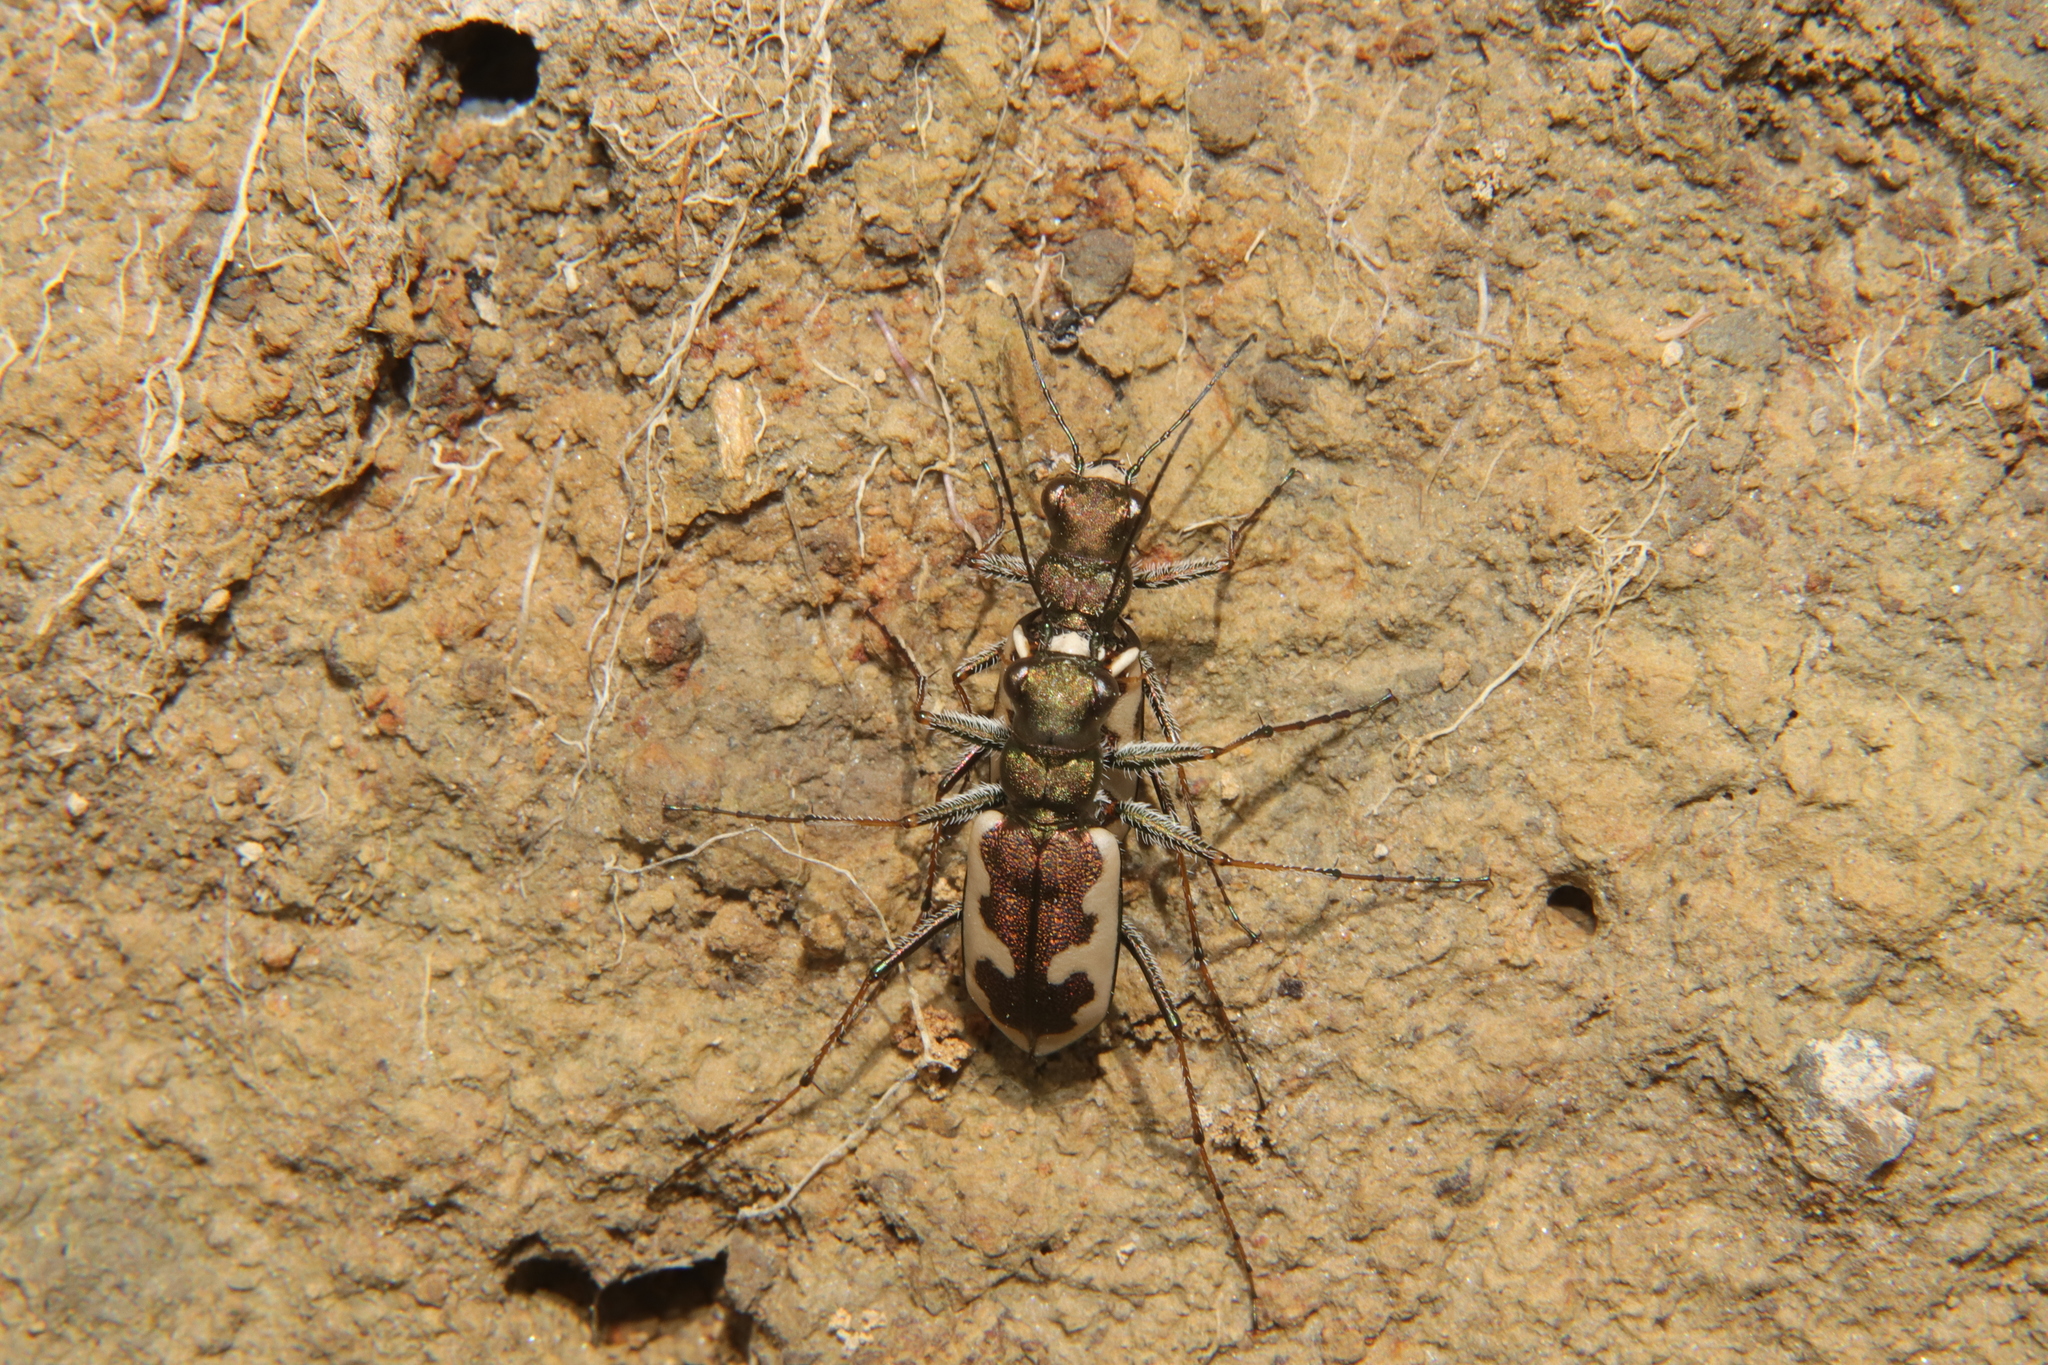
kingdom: Animalia
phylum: Arthropoda
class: Insecta
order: Coleoptera
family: Carabidae
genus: Neocicindela
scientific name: Neocicindela latecincta
